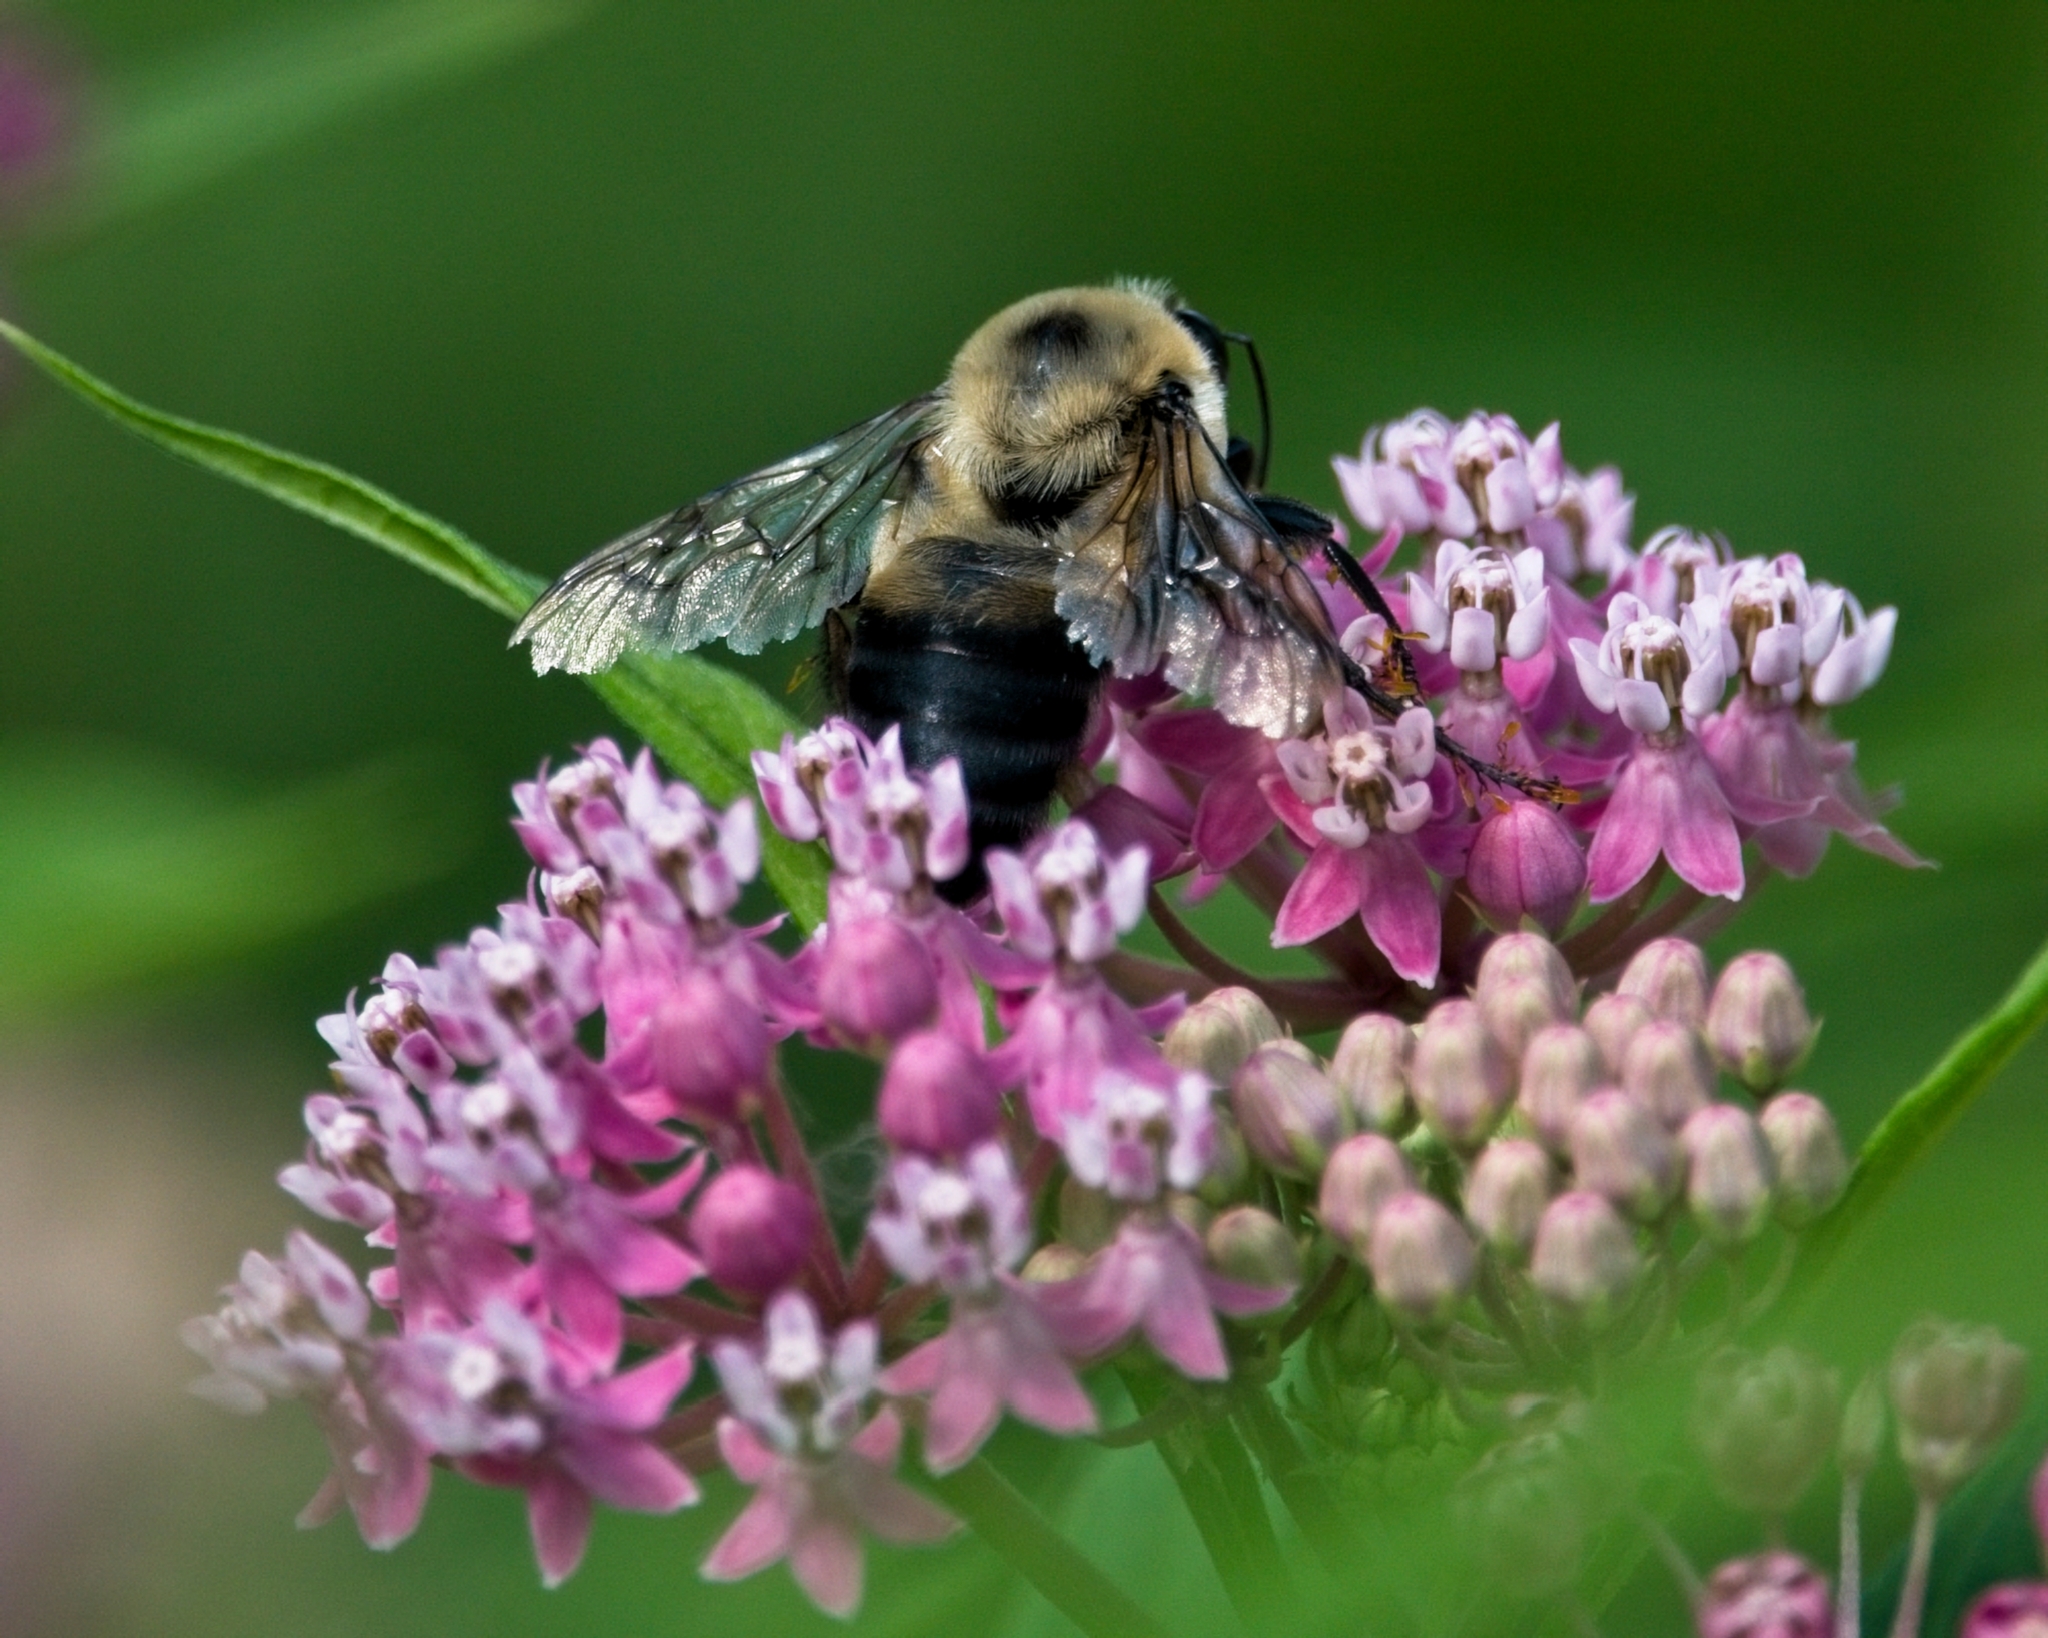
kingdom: Animalia
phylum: Arthropoda
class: Insecta
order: Hymenoptera
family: Apidae
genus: Bombus
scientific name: Bombus griseocollis
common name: Brown-belted bumble bee
